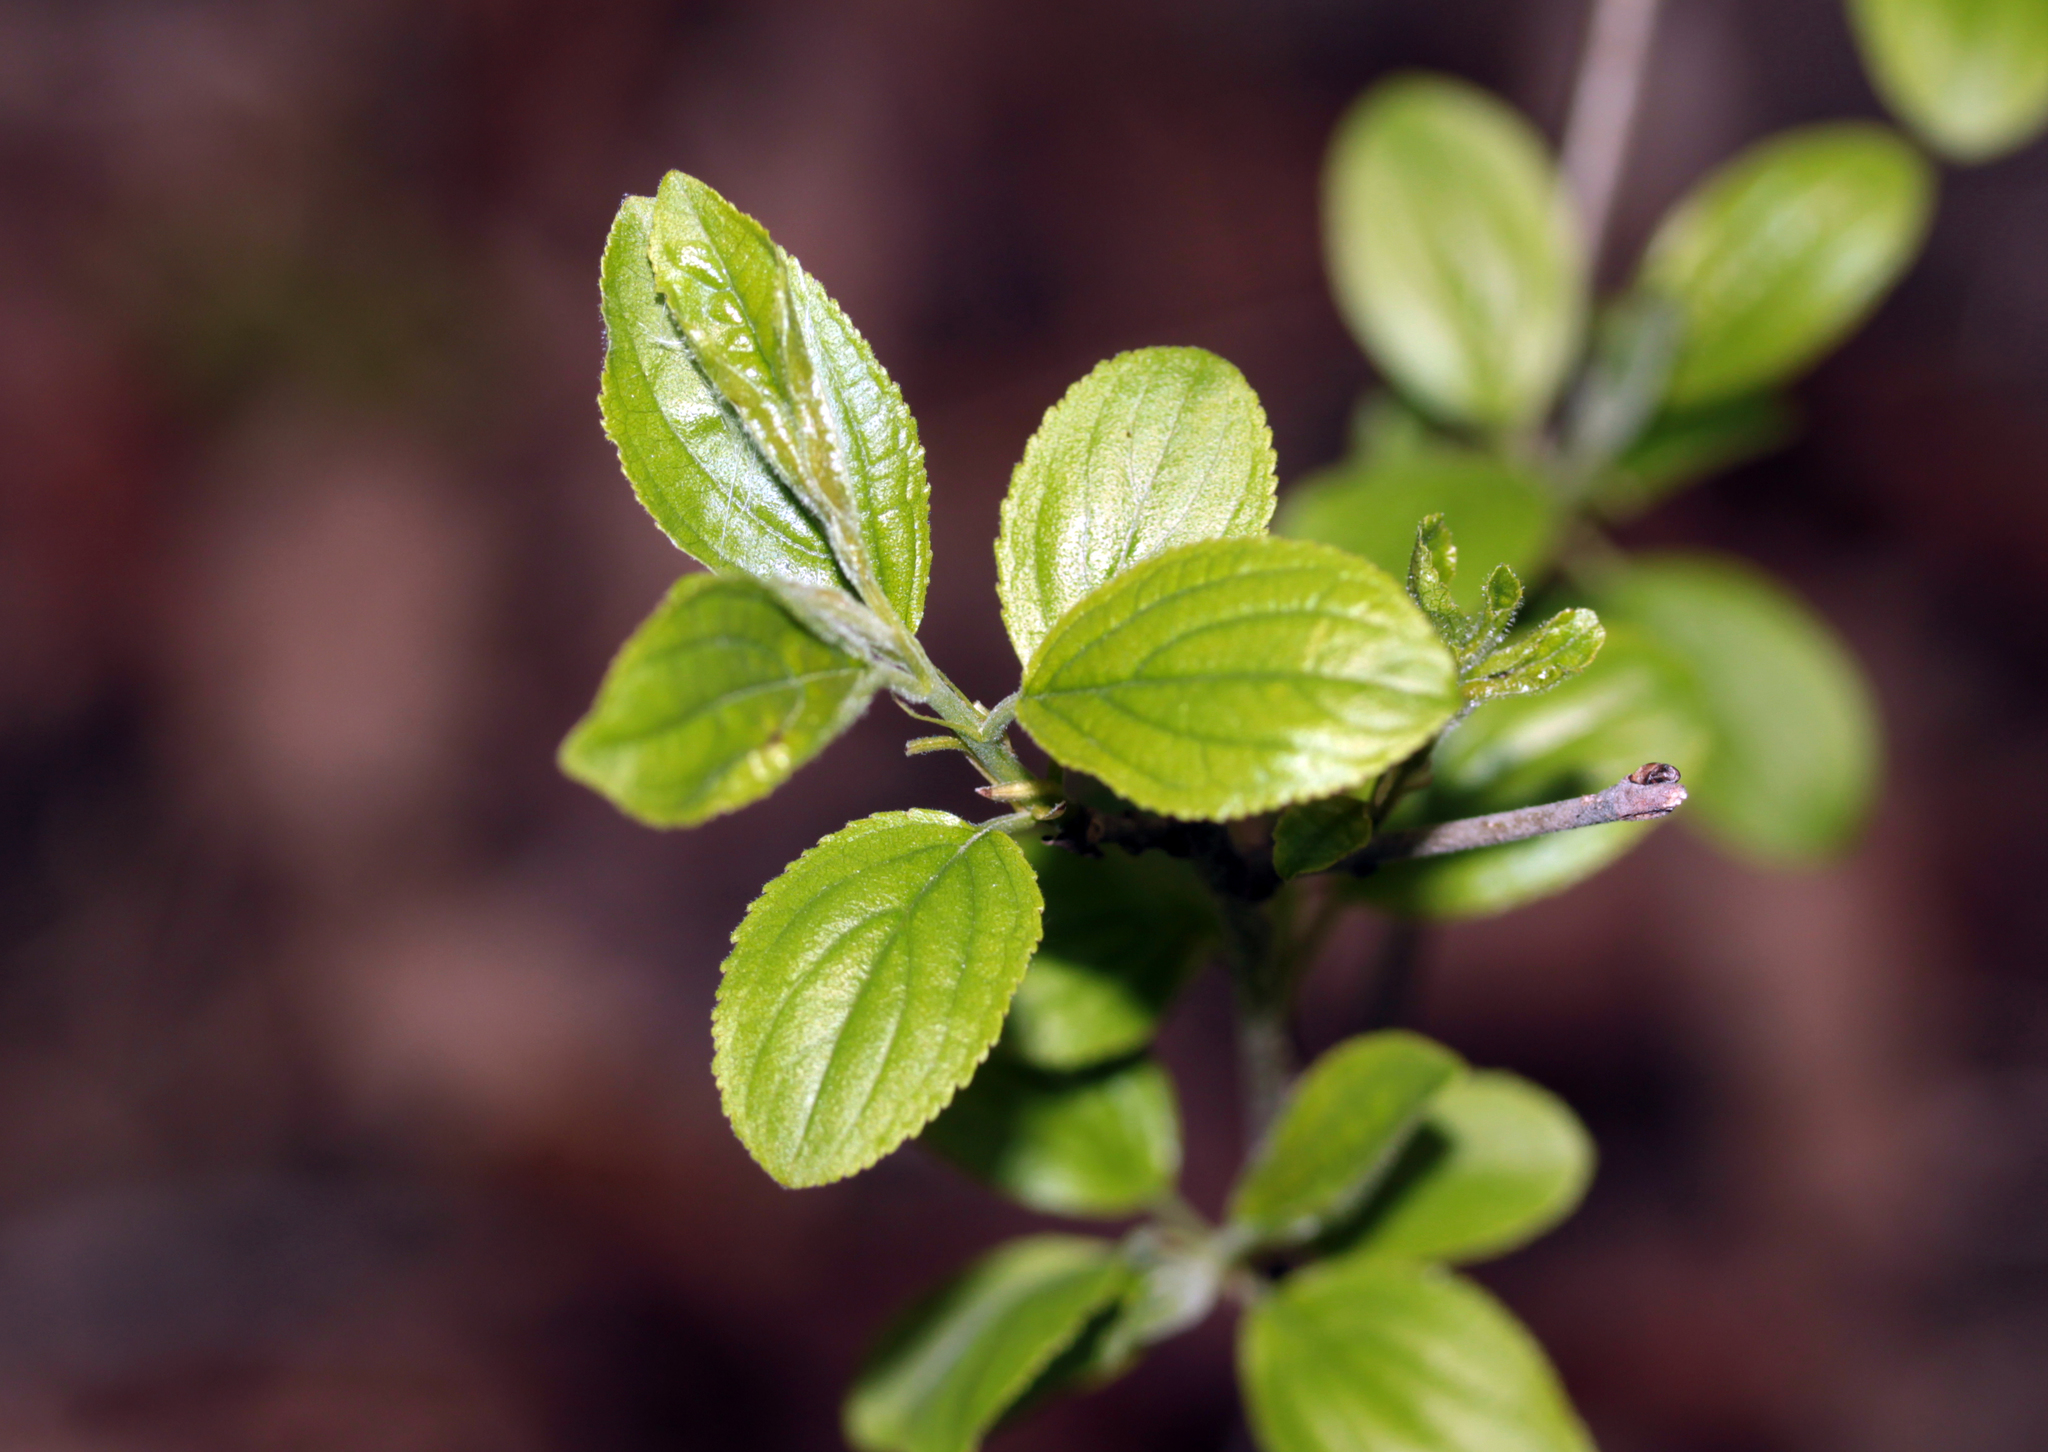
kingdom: Plantae
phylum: Tracheophyta
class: Magnoliopsida
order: Rosales
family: Rhamnaceae
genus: Rhamnus
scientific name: Rhamnus cathartica
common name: Common buckthorn
